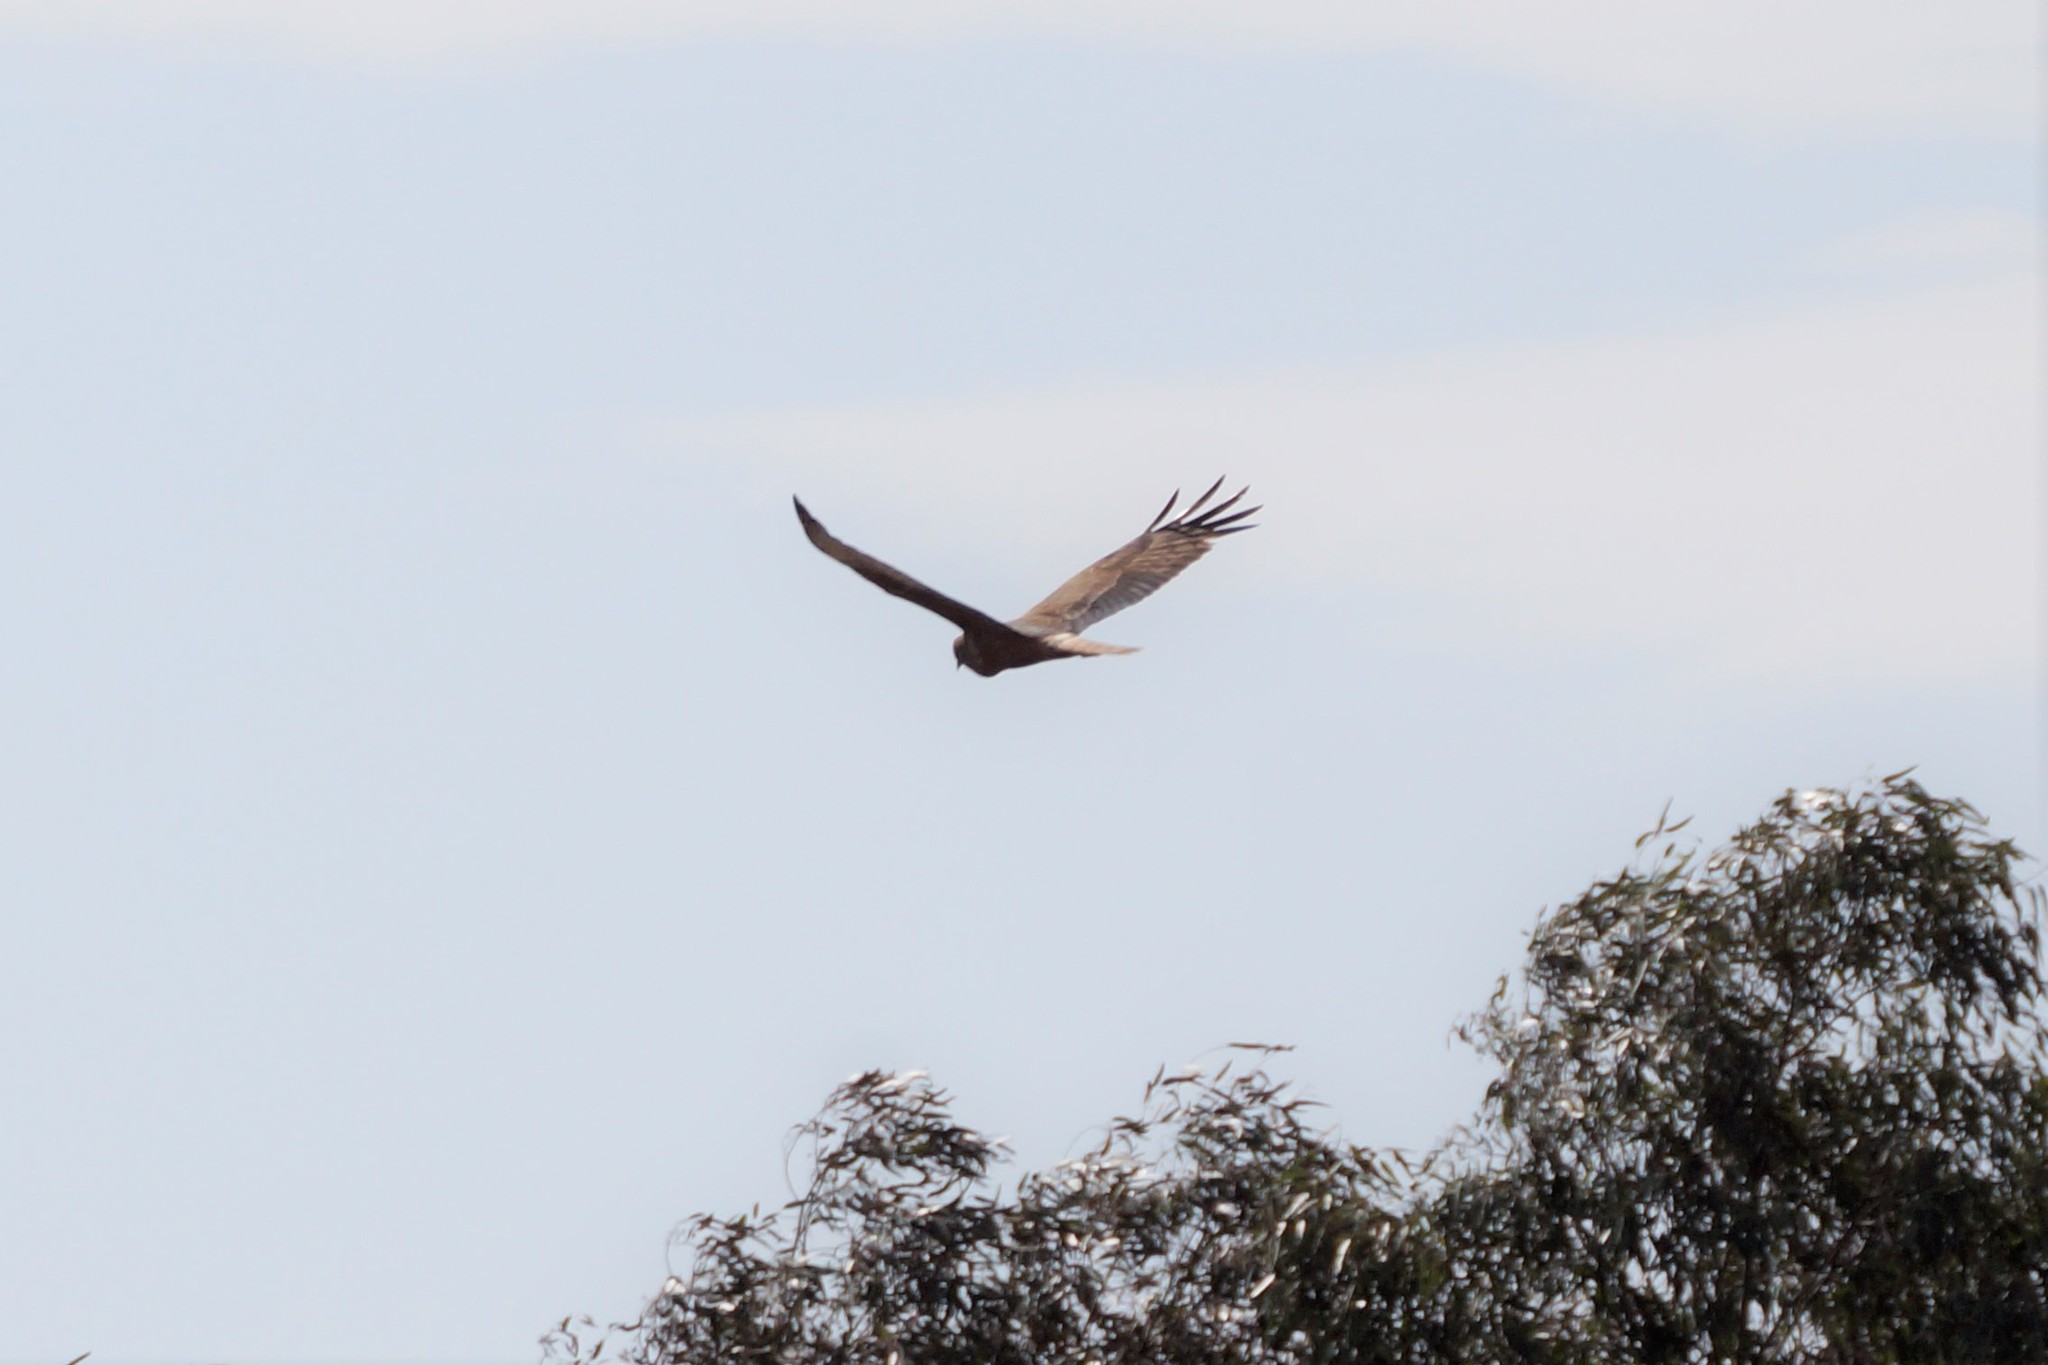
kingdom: Animalia
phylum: Chordata
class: Aves
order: Accipitriformes
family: Accipitridae
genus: Circus
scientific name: Circus approximans
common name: Swamp harrier
